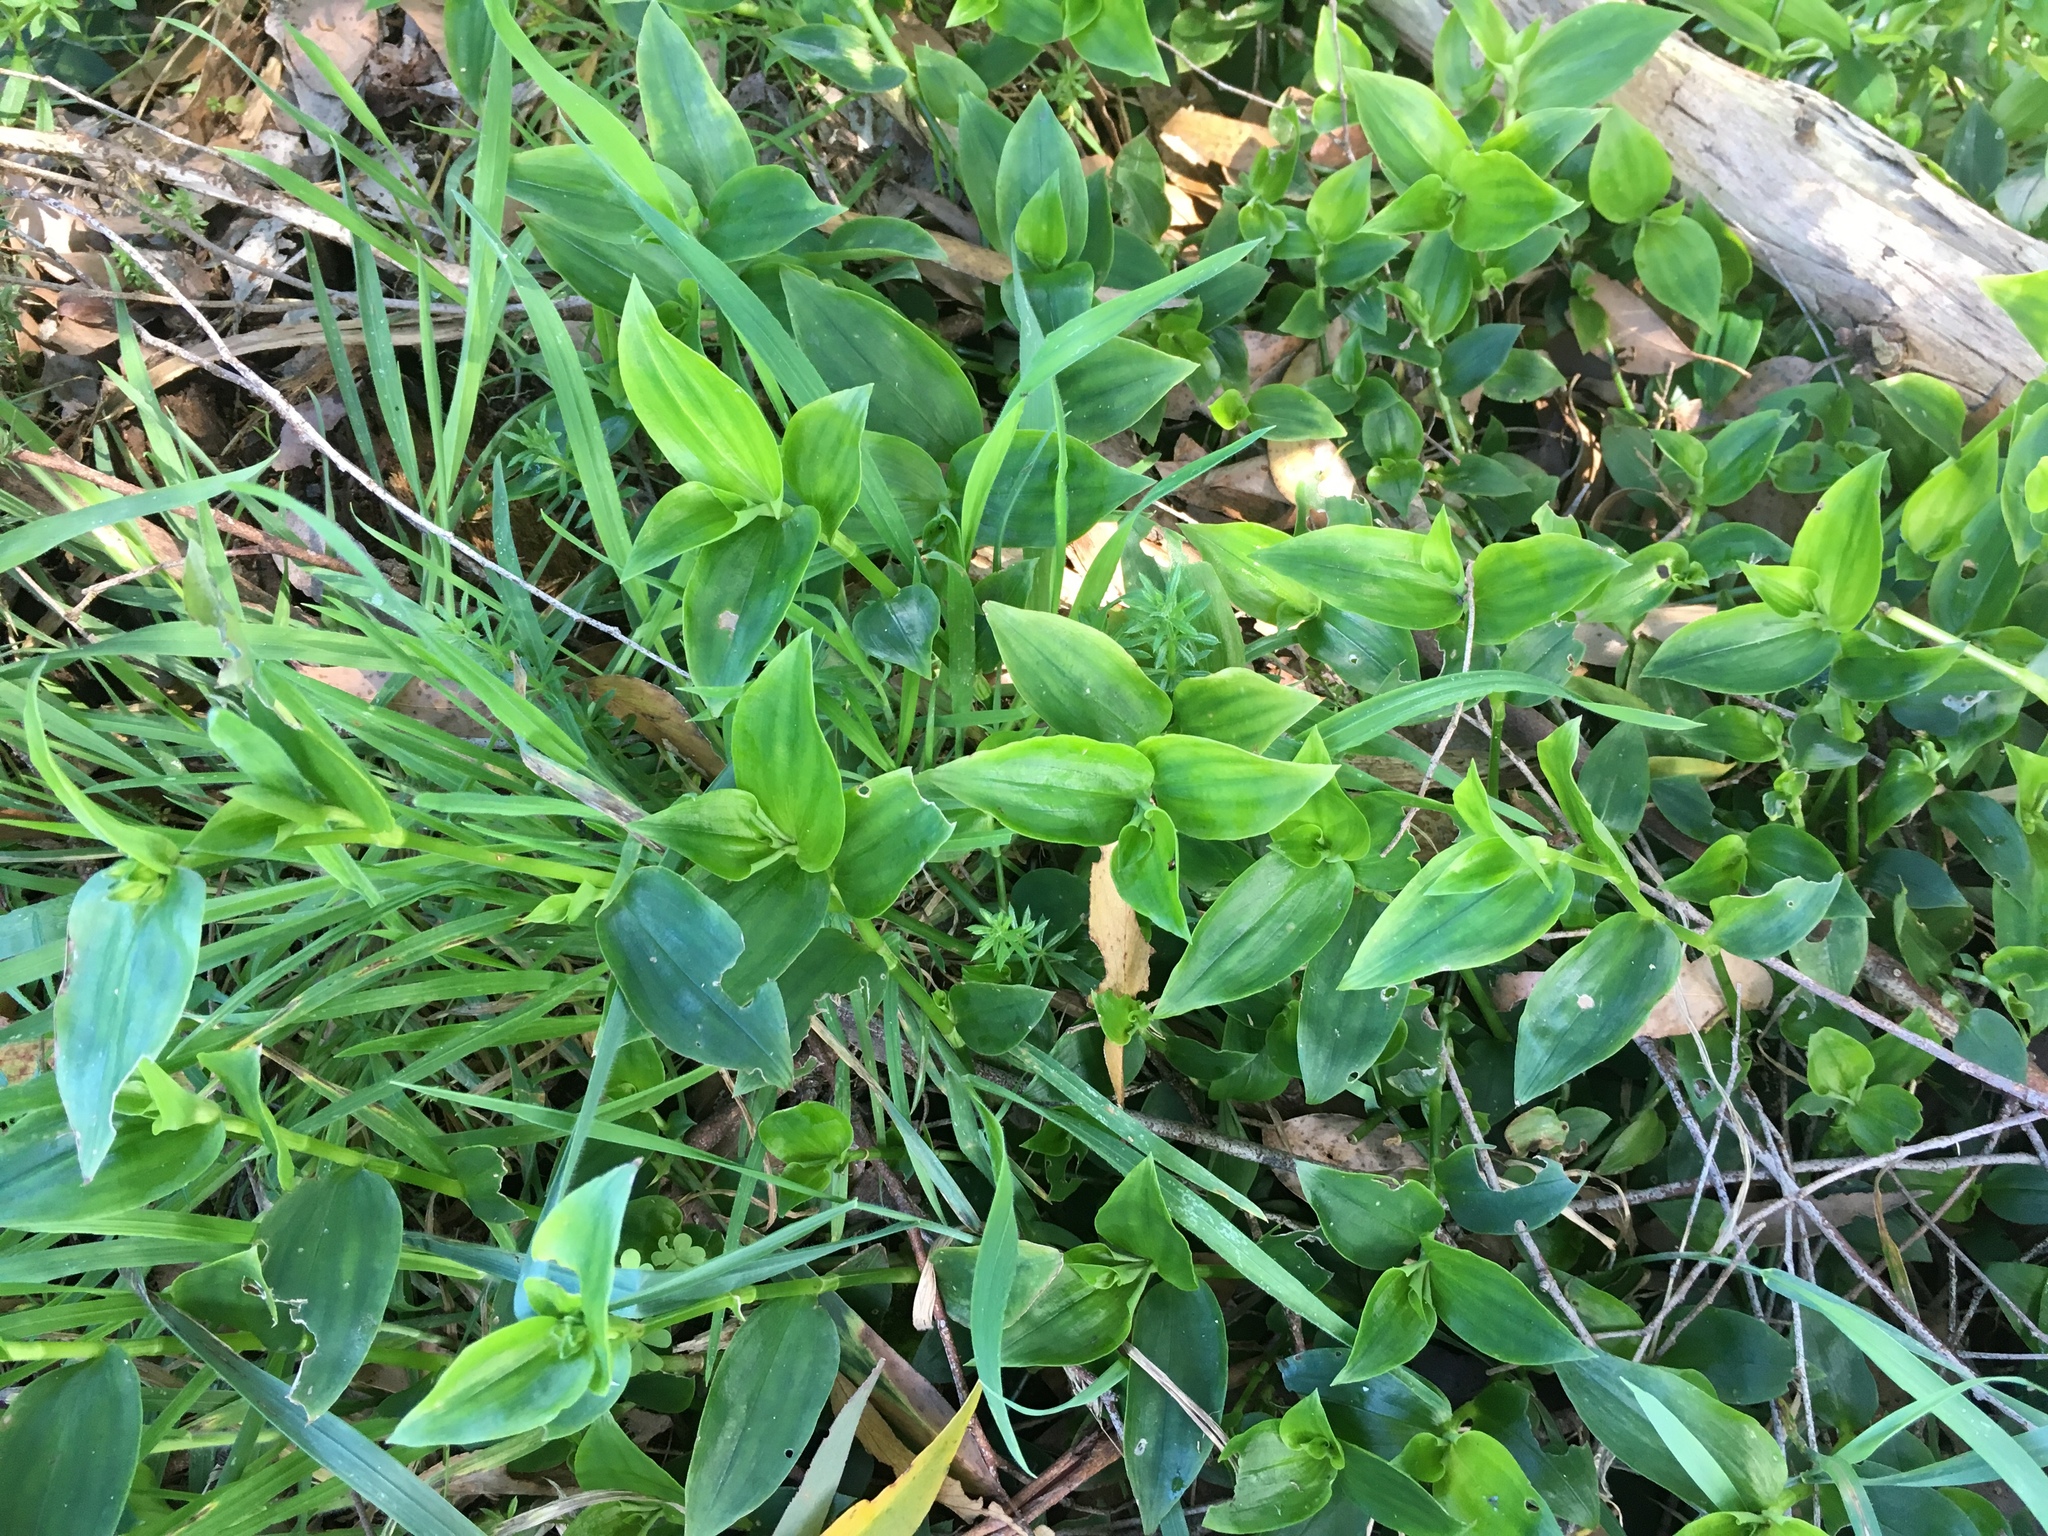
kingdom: Plantae
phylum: Tracheophyta
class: Liliopsida
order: Commelinales
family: Commelinaceae
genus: Tradescantia
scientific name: Tradescantia fluminensis
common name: Wandering-jew
